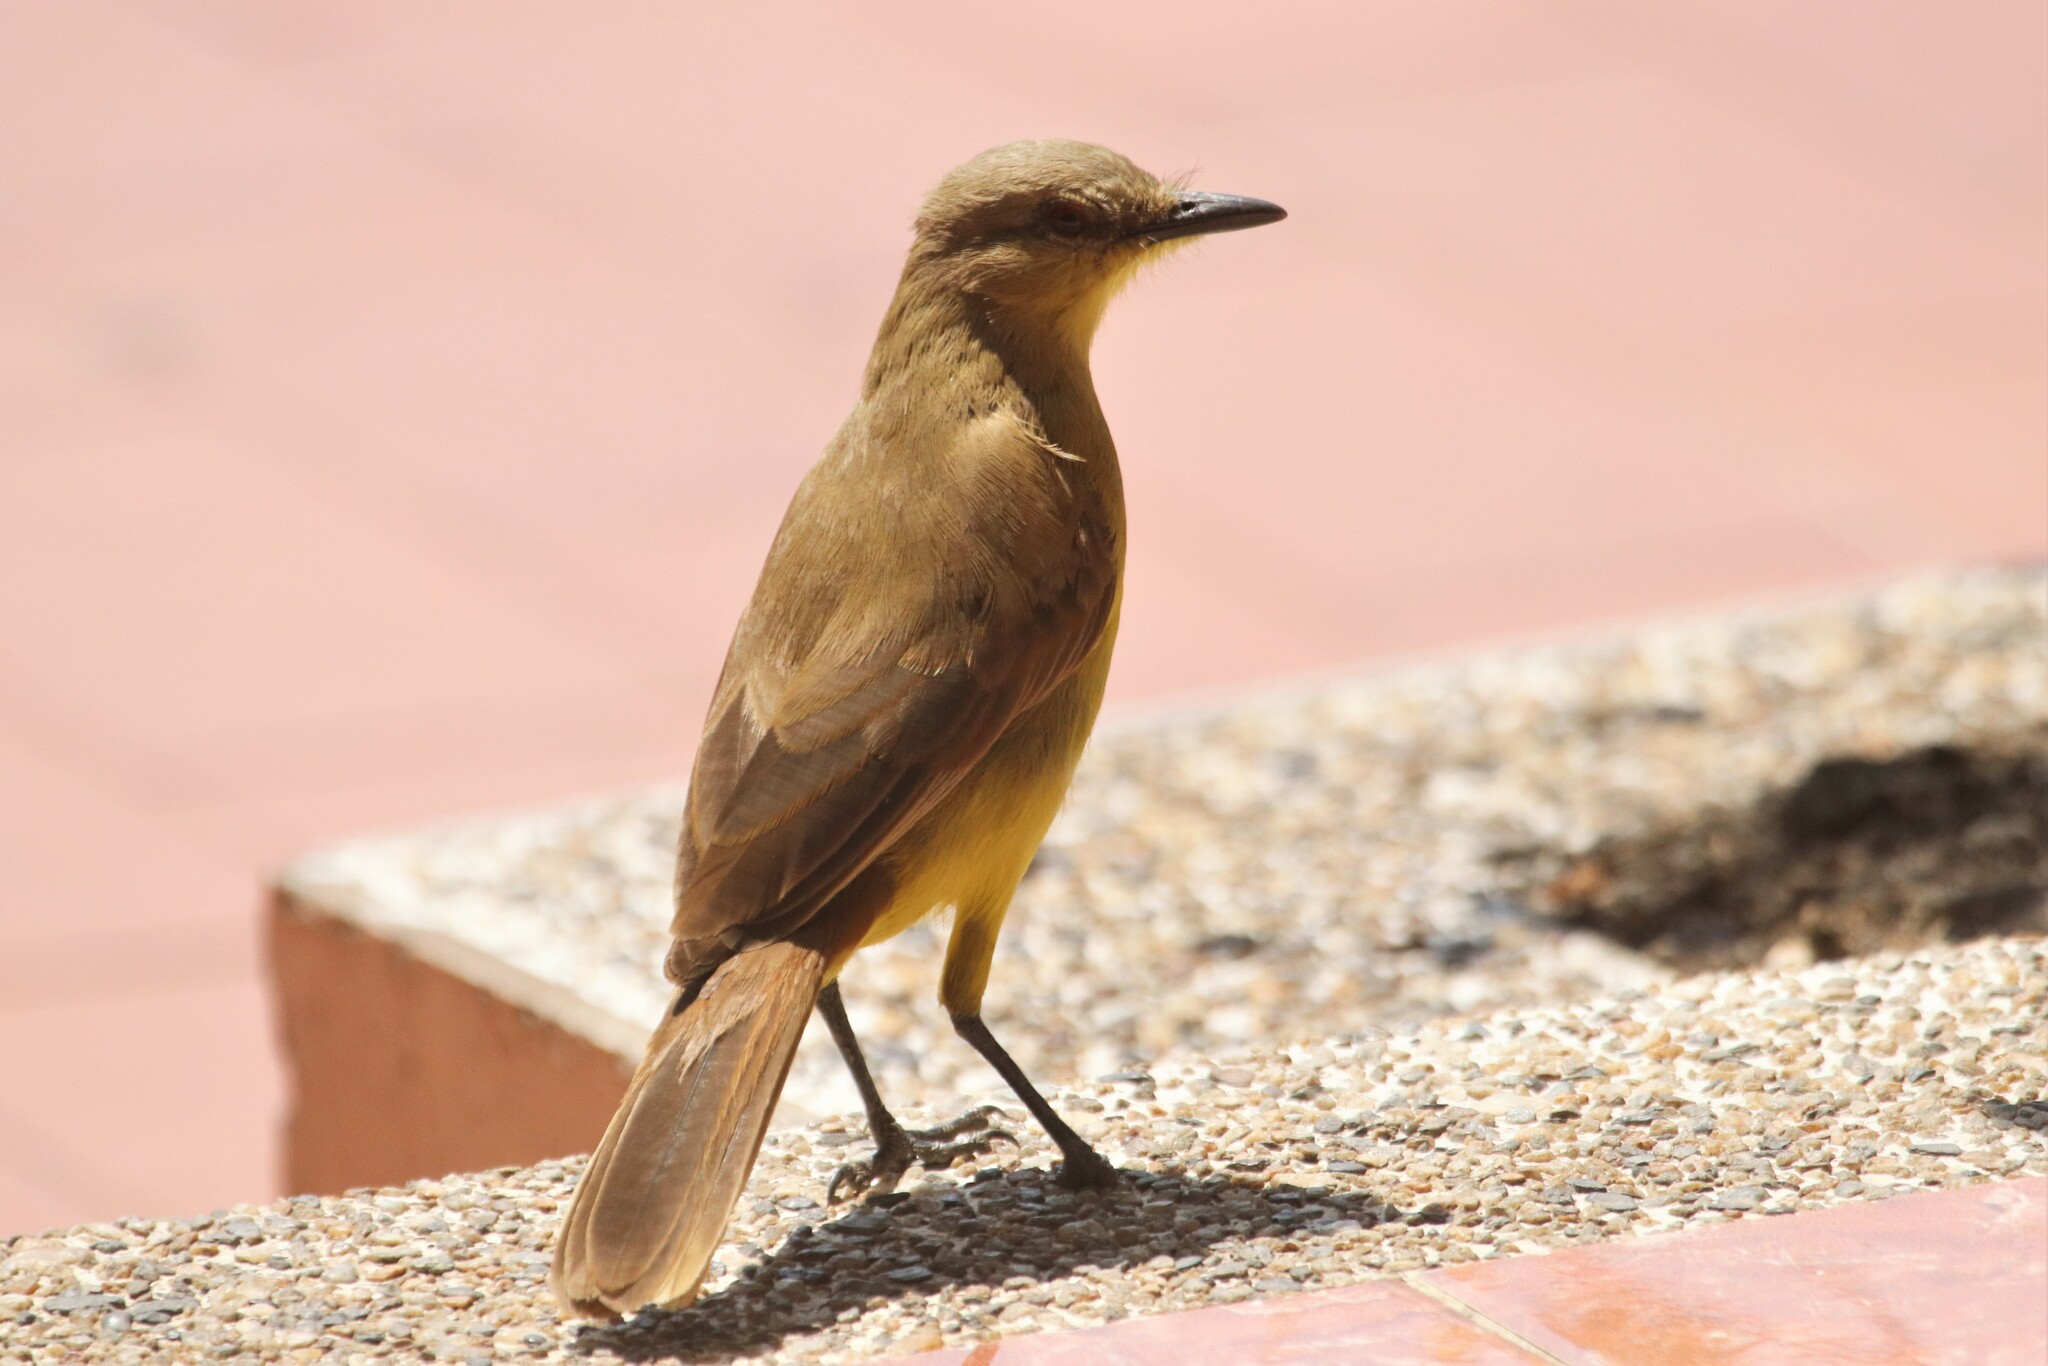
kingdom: Animalia
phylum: Chordata
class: Aves
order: Passeriformes
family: Tyrannidae
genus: Machetornis
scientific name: Machetornis rixosa
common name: Cattle tyrant
